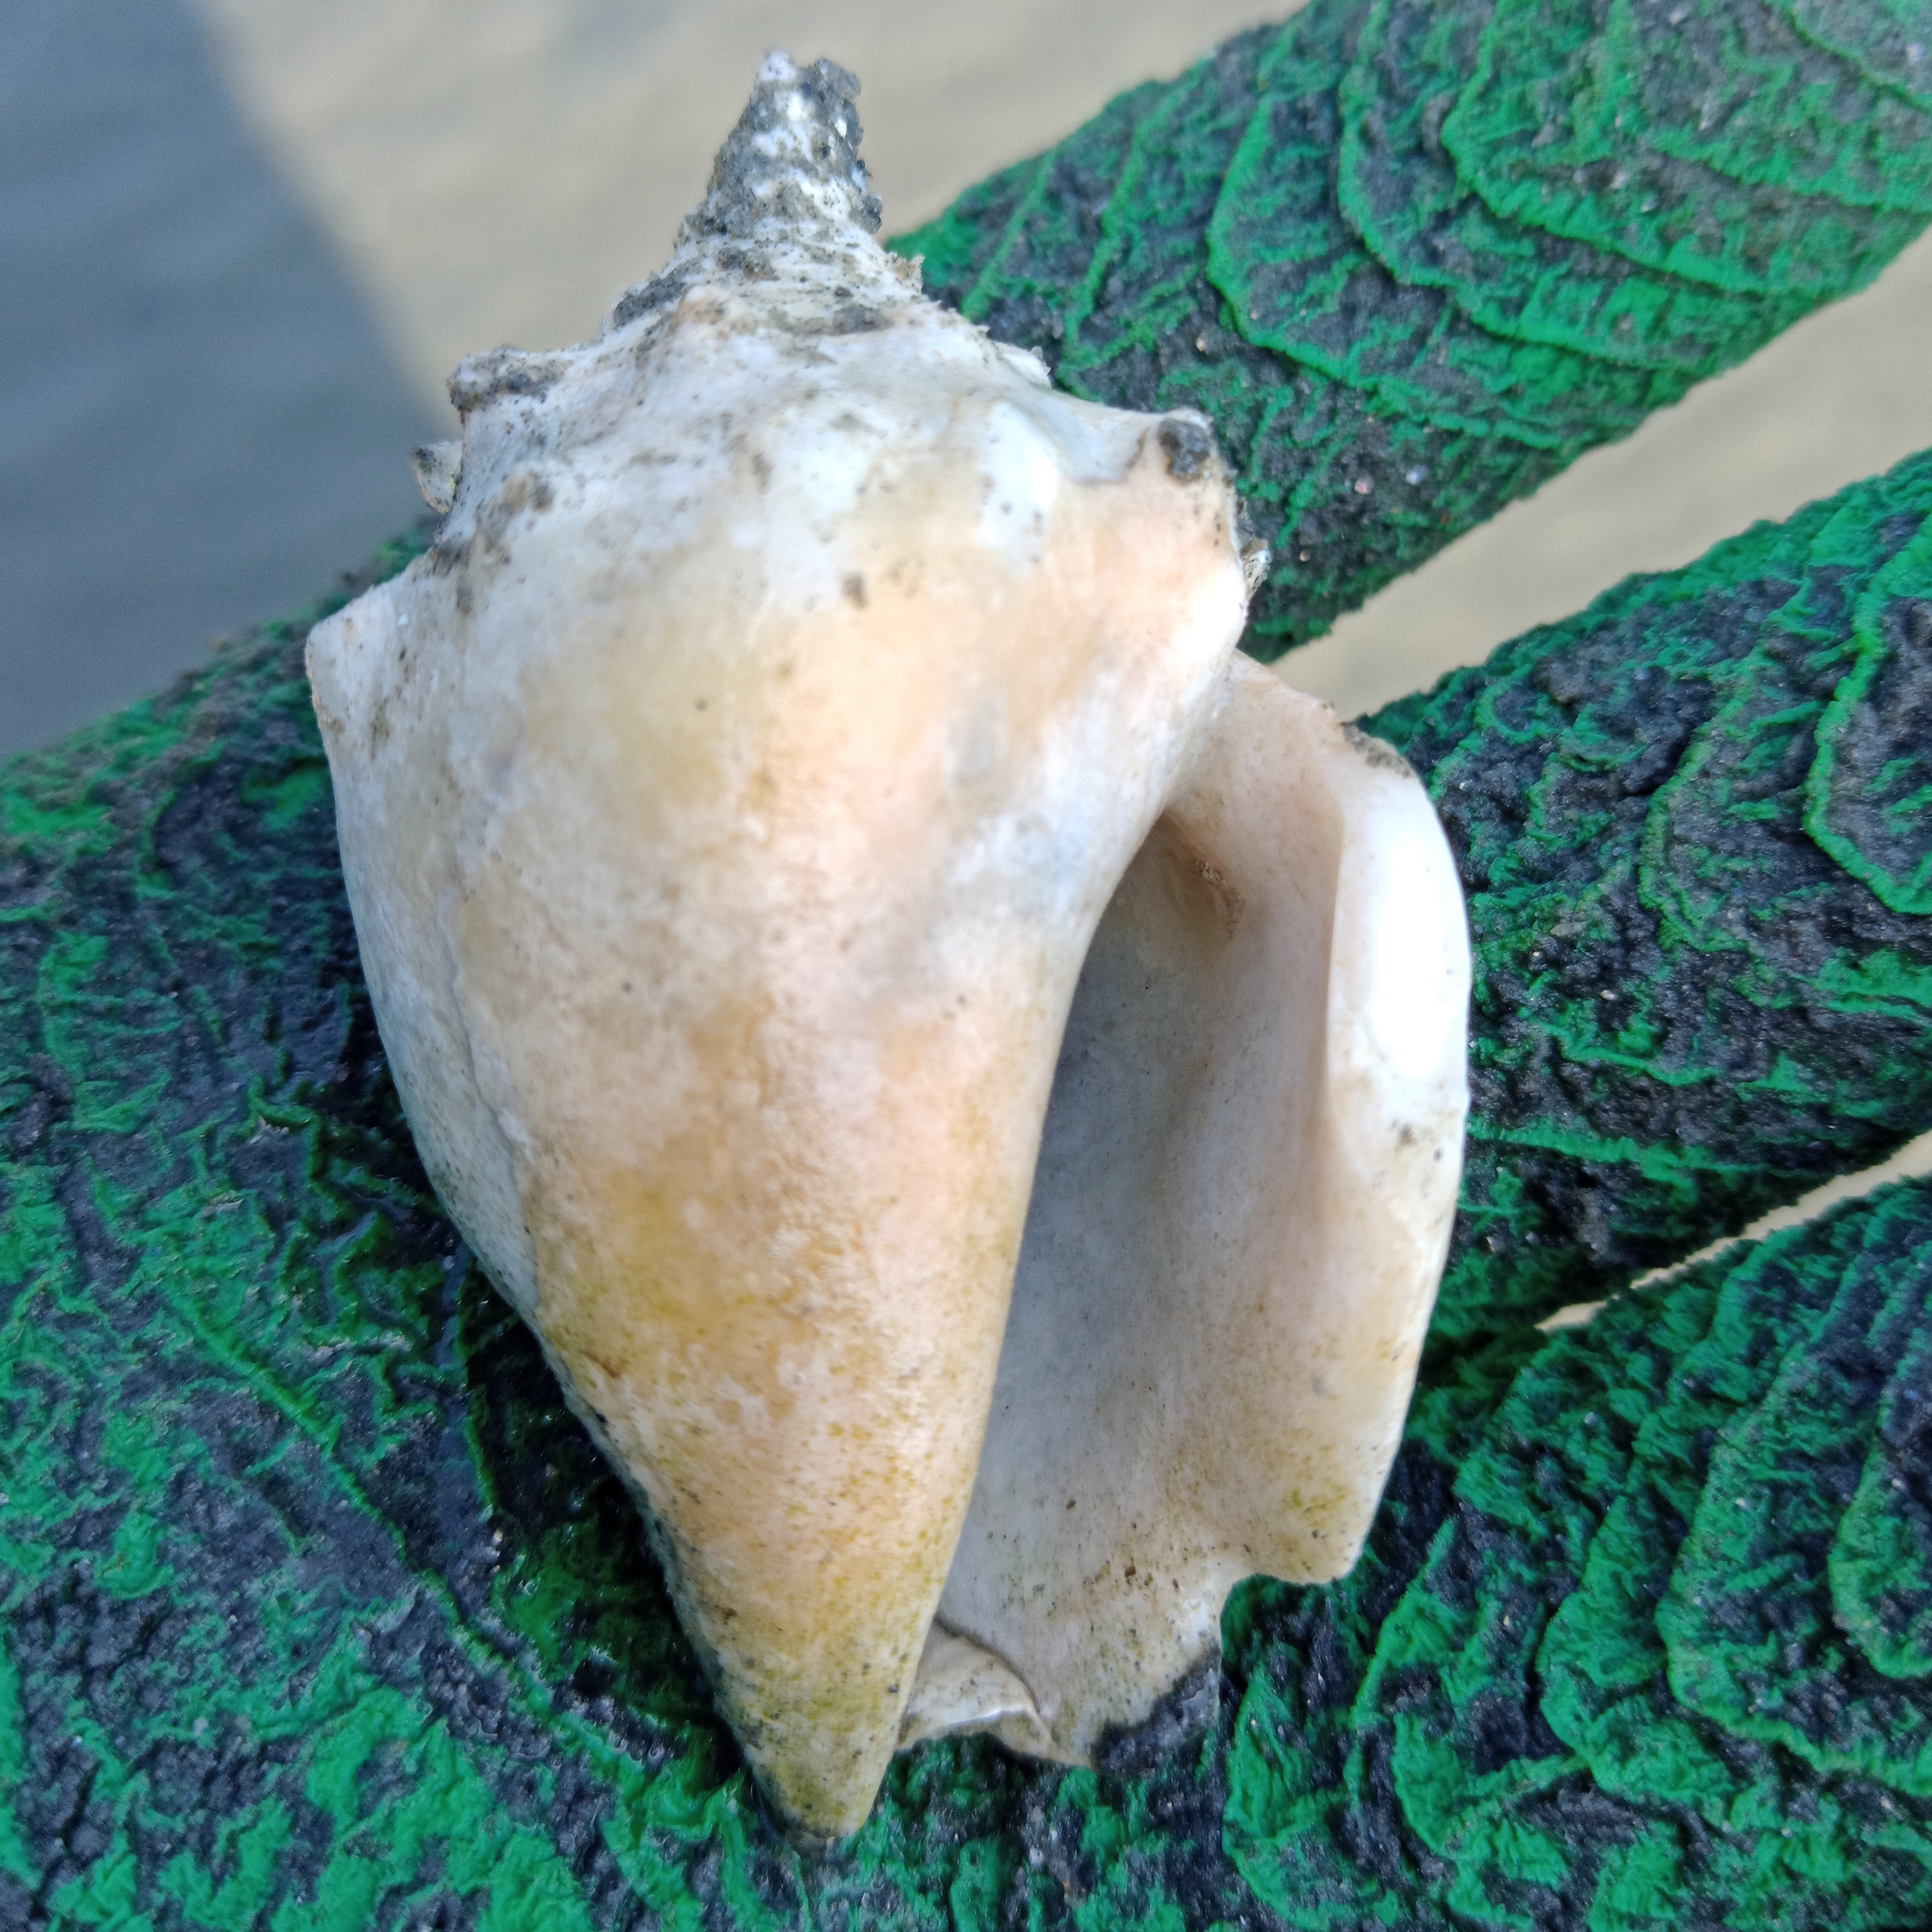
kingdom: Animalia
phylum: Mollusca
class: Gastropoda
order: Littorinimorpha
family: Strombidae
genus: Strombus
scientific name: Strombus pugilis
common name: West indian fighting conch
